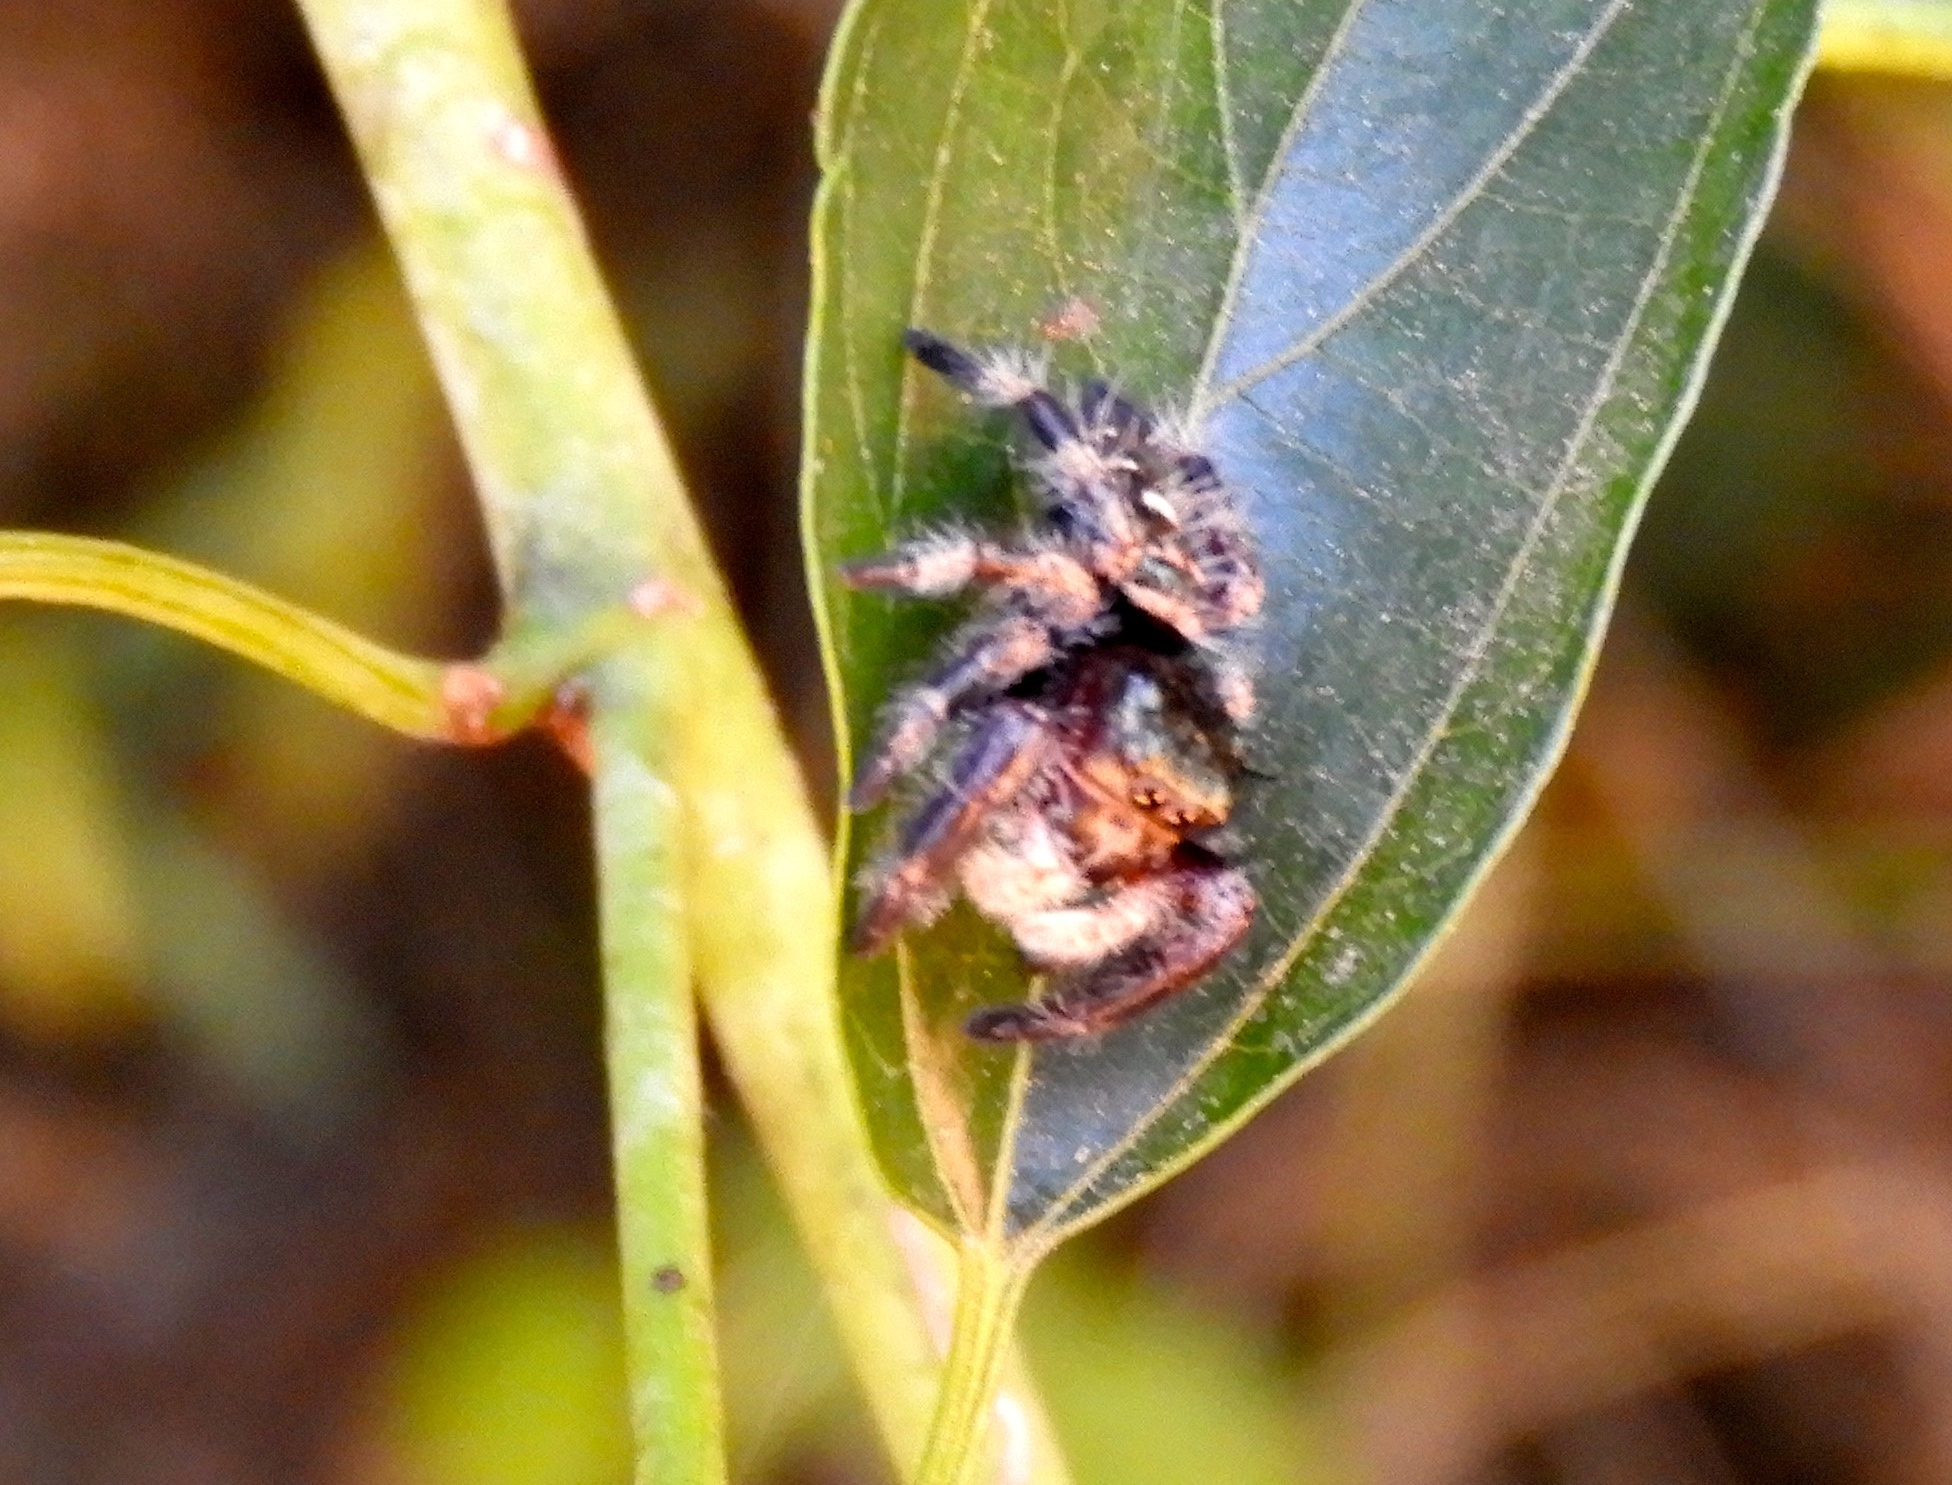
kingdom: Animalia
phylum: Arthropoda
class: Arachnida
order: Araneae
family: Salticidae
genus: Phidippus
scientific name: Phidippus maddisoni
